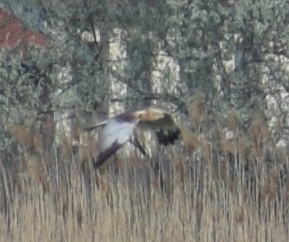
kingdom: Animalia
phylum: Chordata
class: Aves
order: Accipitriformes
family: Accipitridae
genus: Circus
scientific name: Circus aeruginosus
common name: Western marsh harrier
